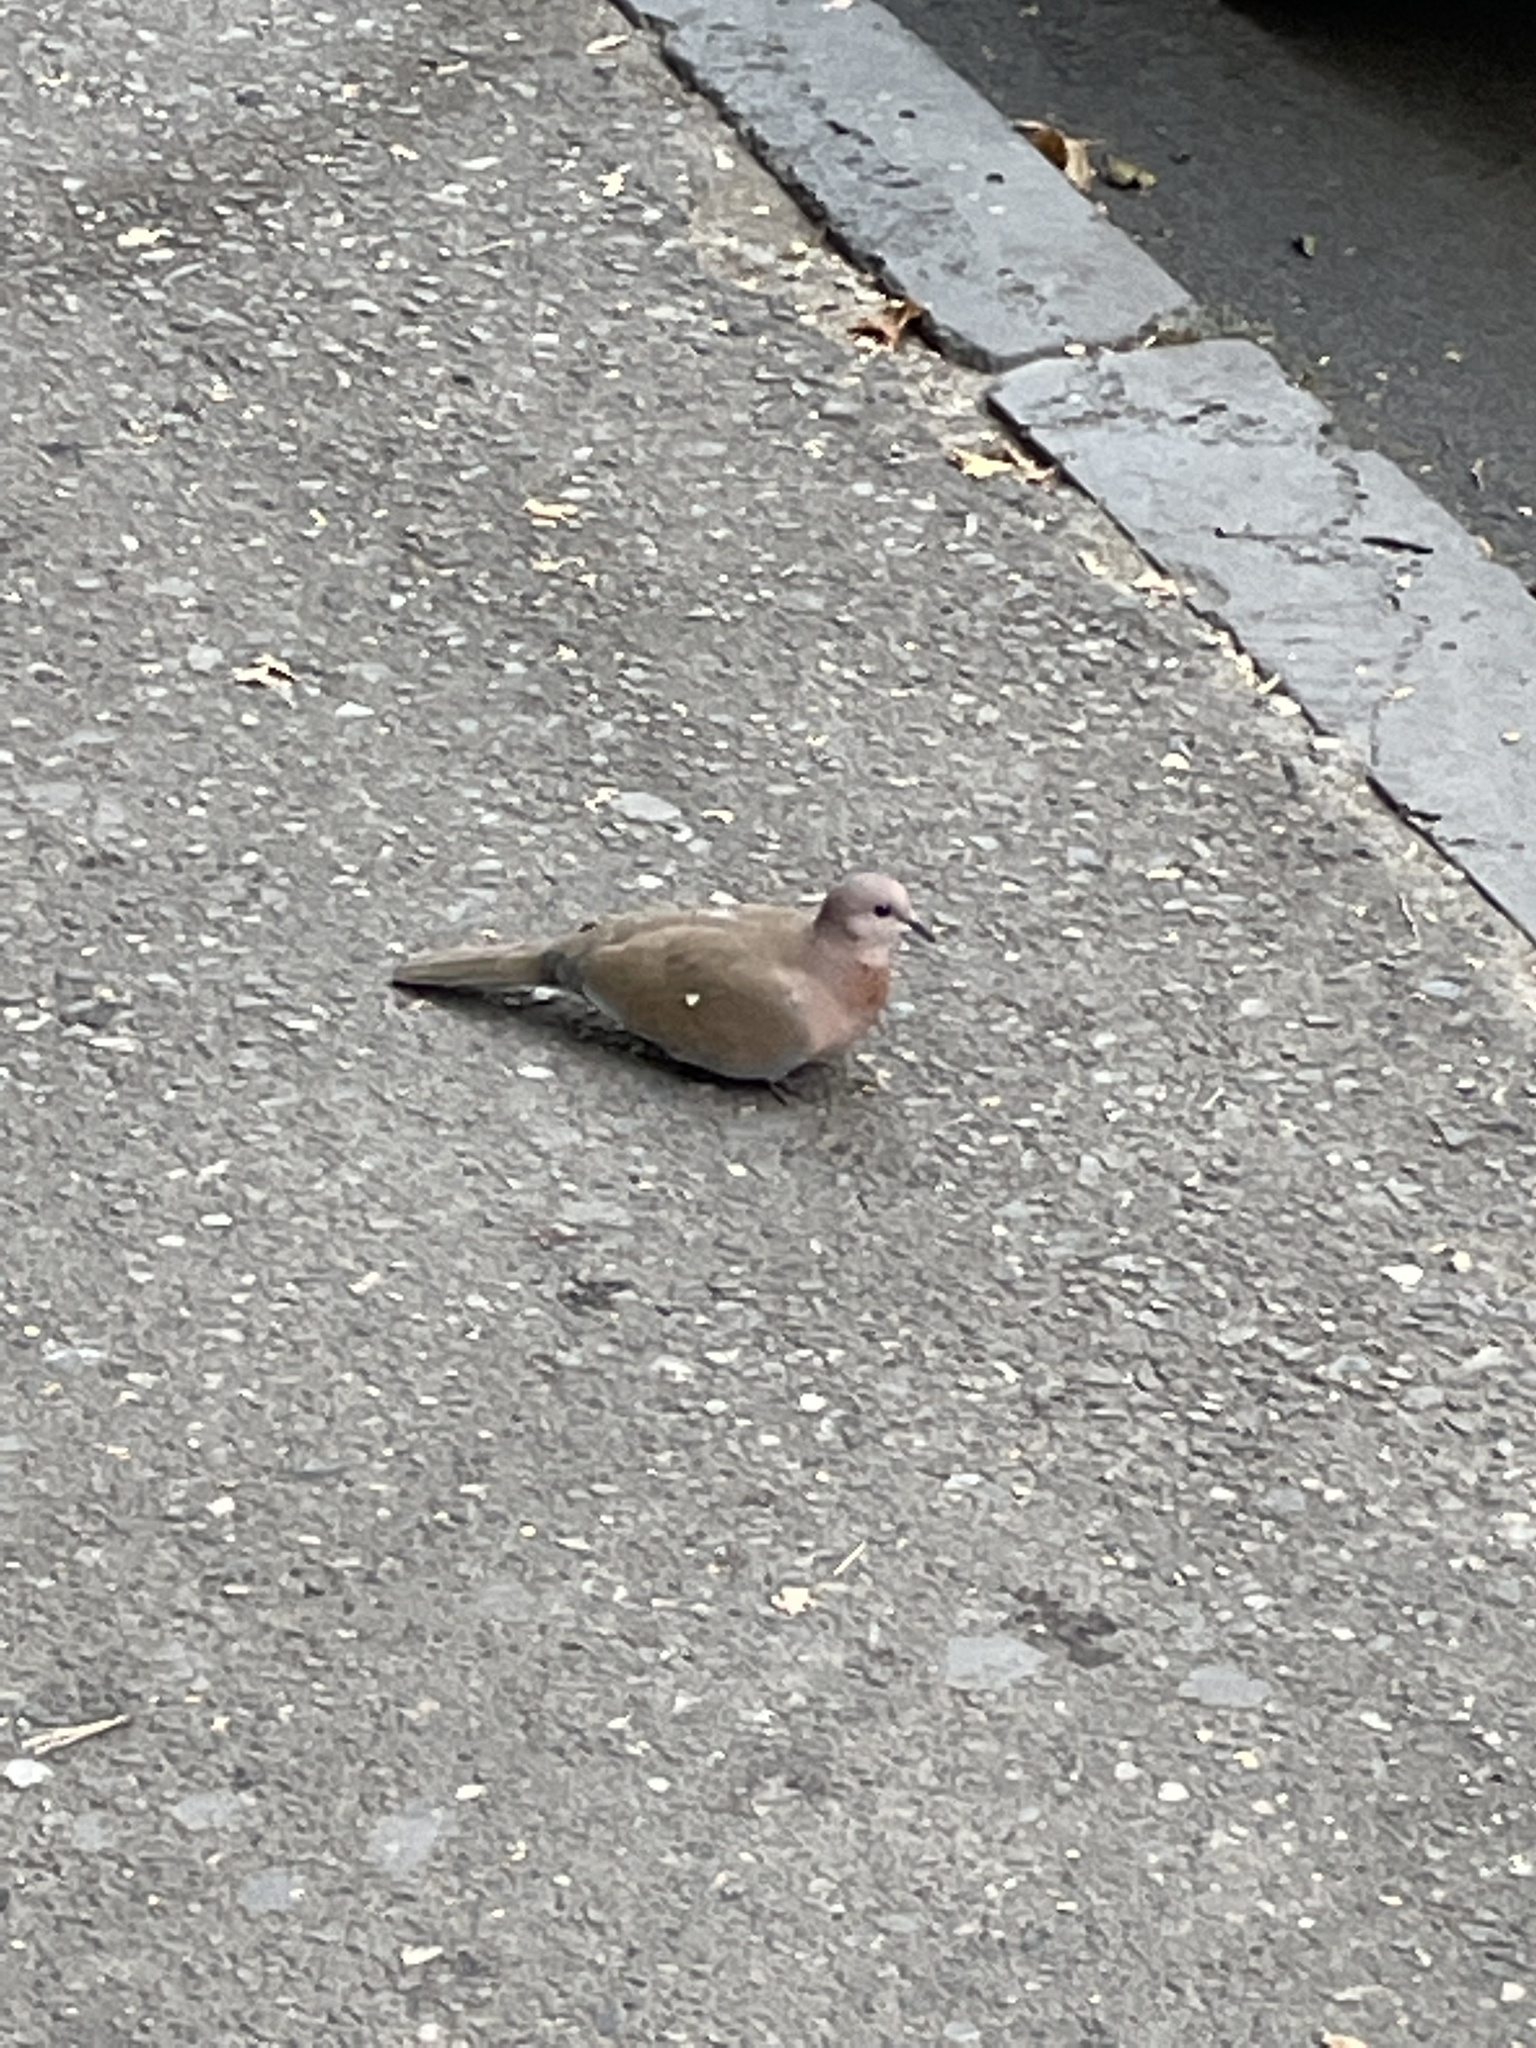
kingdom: Animalia
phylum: Chordata
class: Aves
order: Columbiformes
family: Columbidae
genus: Spilopelia
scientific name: Spilopelia senegalensis
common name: Laughing dove
